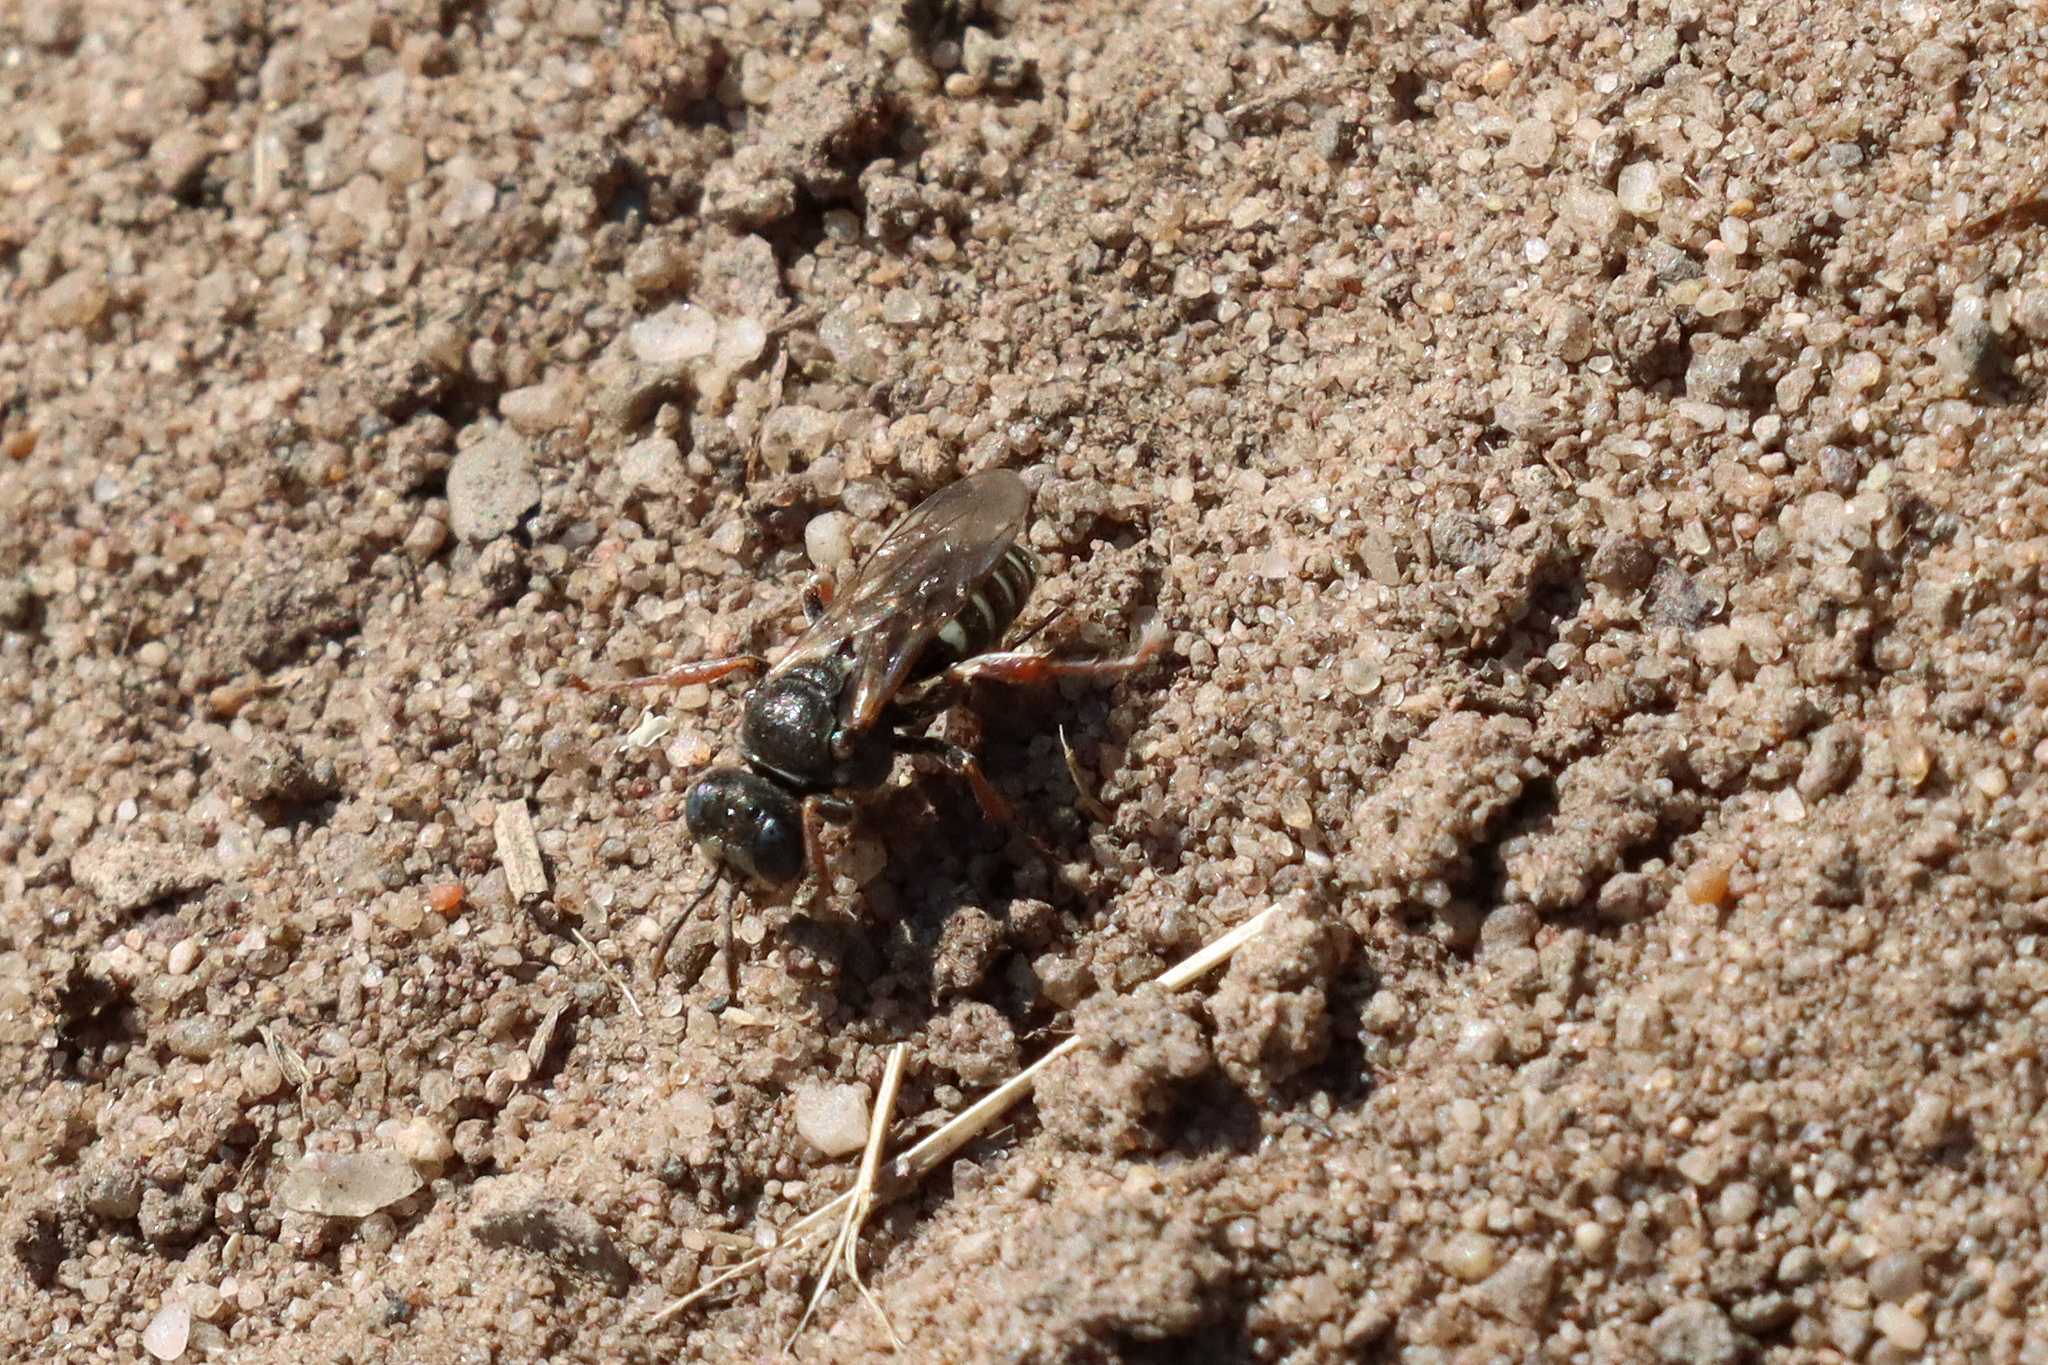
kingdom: Animalia
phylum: Arthropoda
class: Insecta
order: Hymenoptera
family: Crabronidae
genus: Oxybelus
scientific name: Oxybelus uniglumis
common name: Common spiny digger wasp
